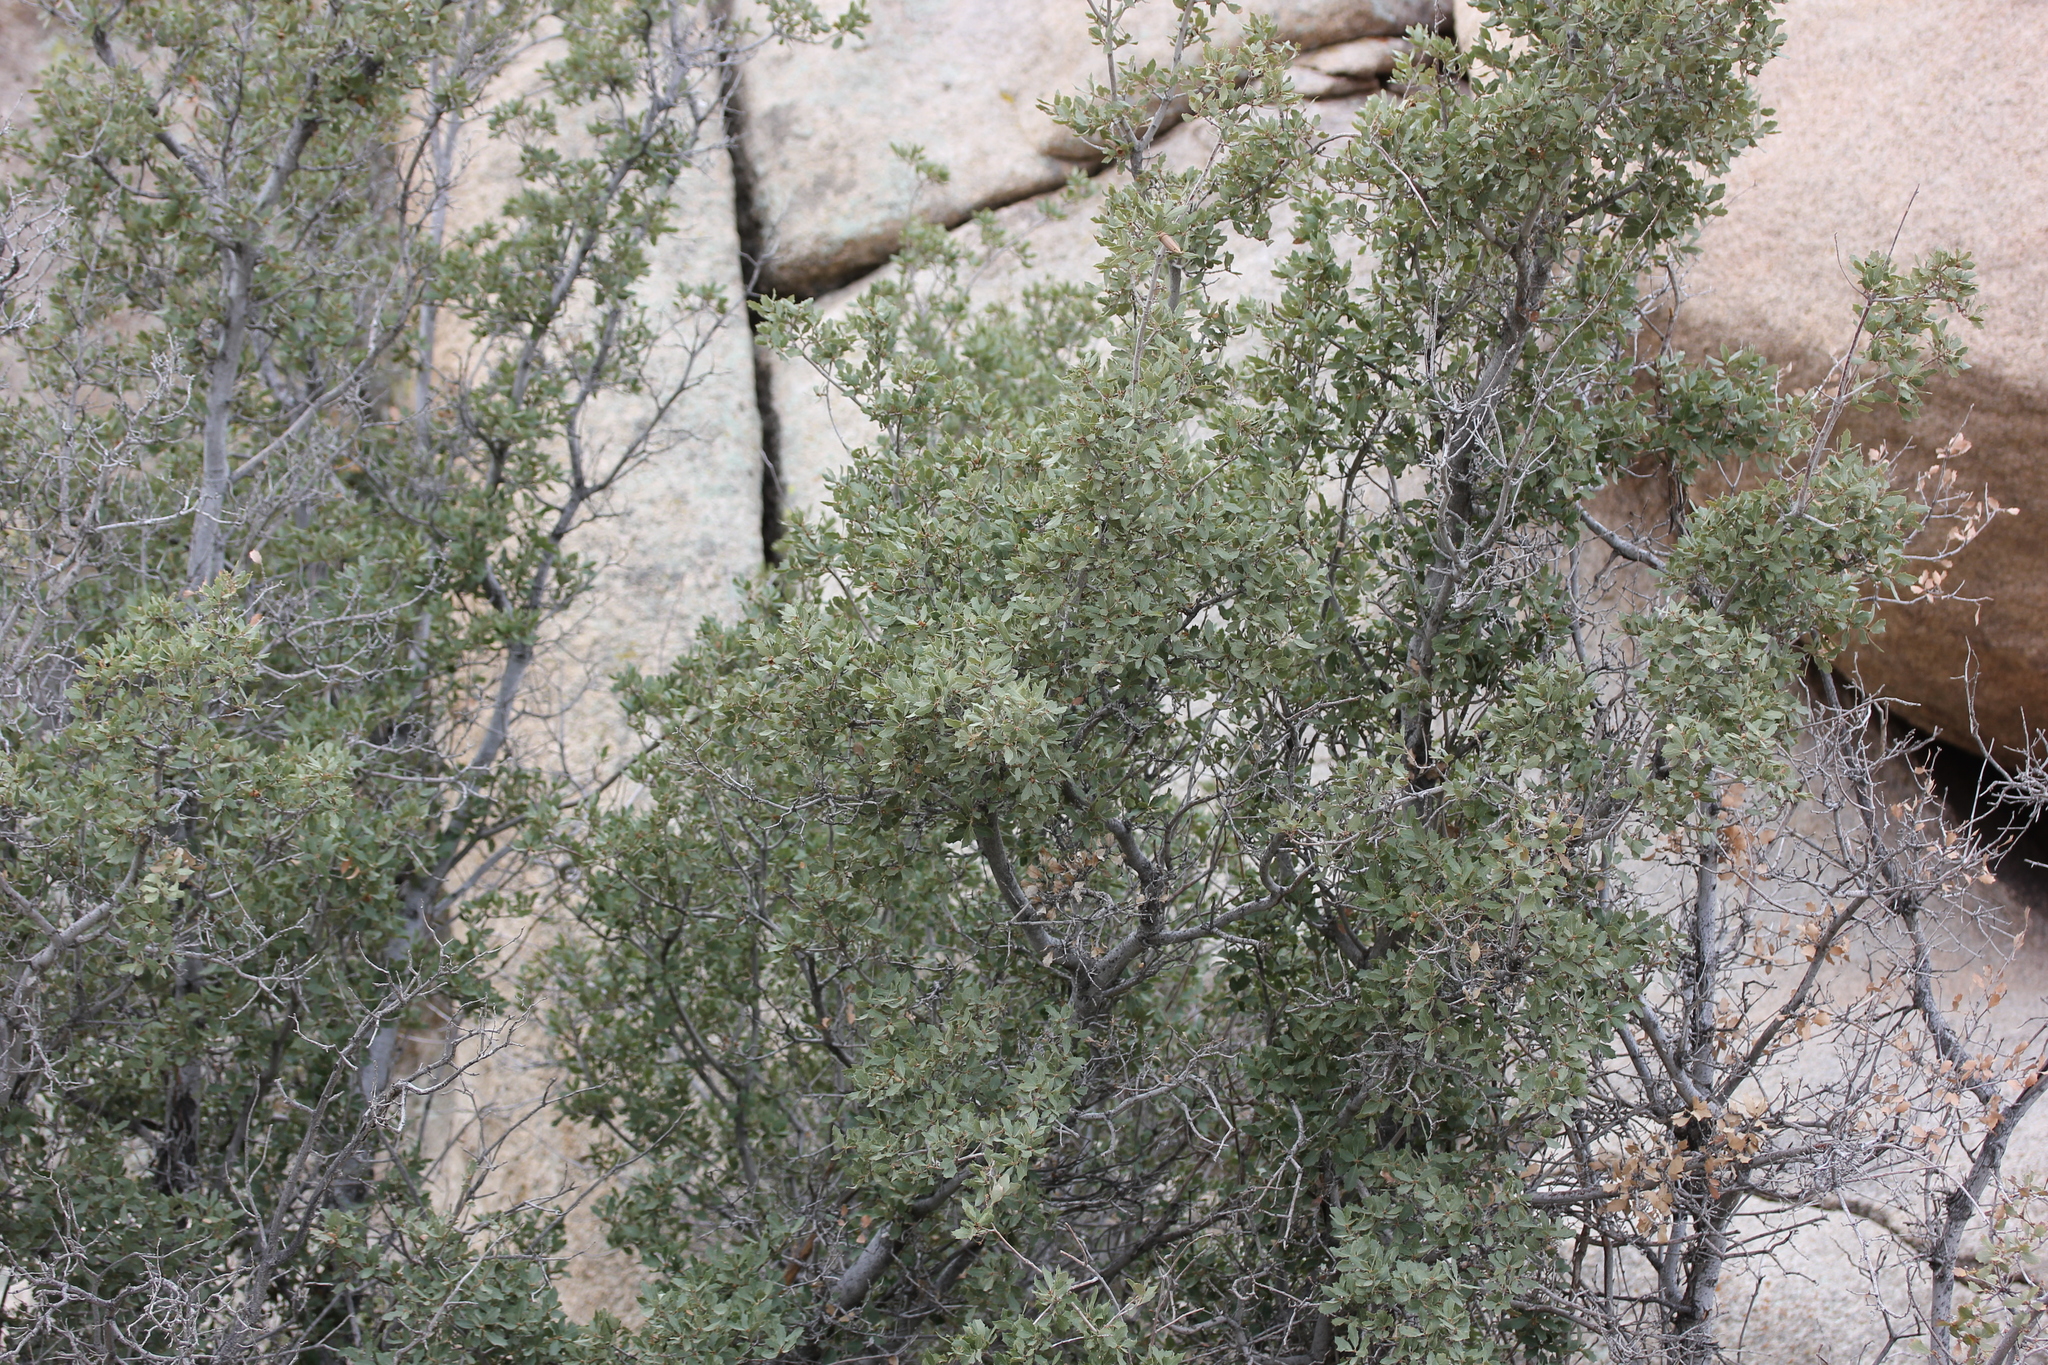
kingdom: Plantae
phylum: Tracheophyta
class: Magnoliopsida
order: Fagales
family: Fagaceae
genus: Quercus
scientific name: Quercus cornelius-mulleri
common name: Muller oak
